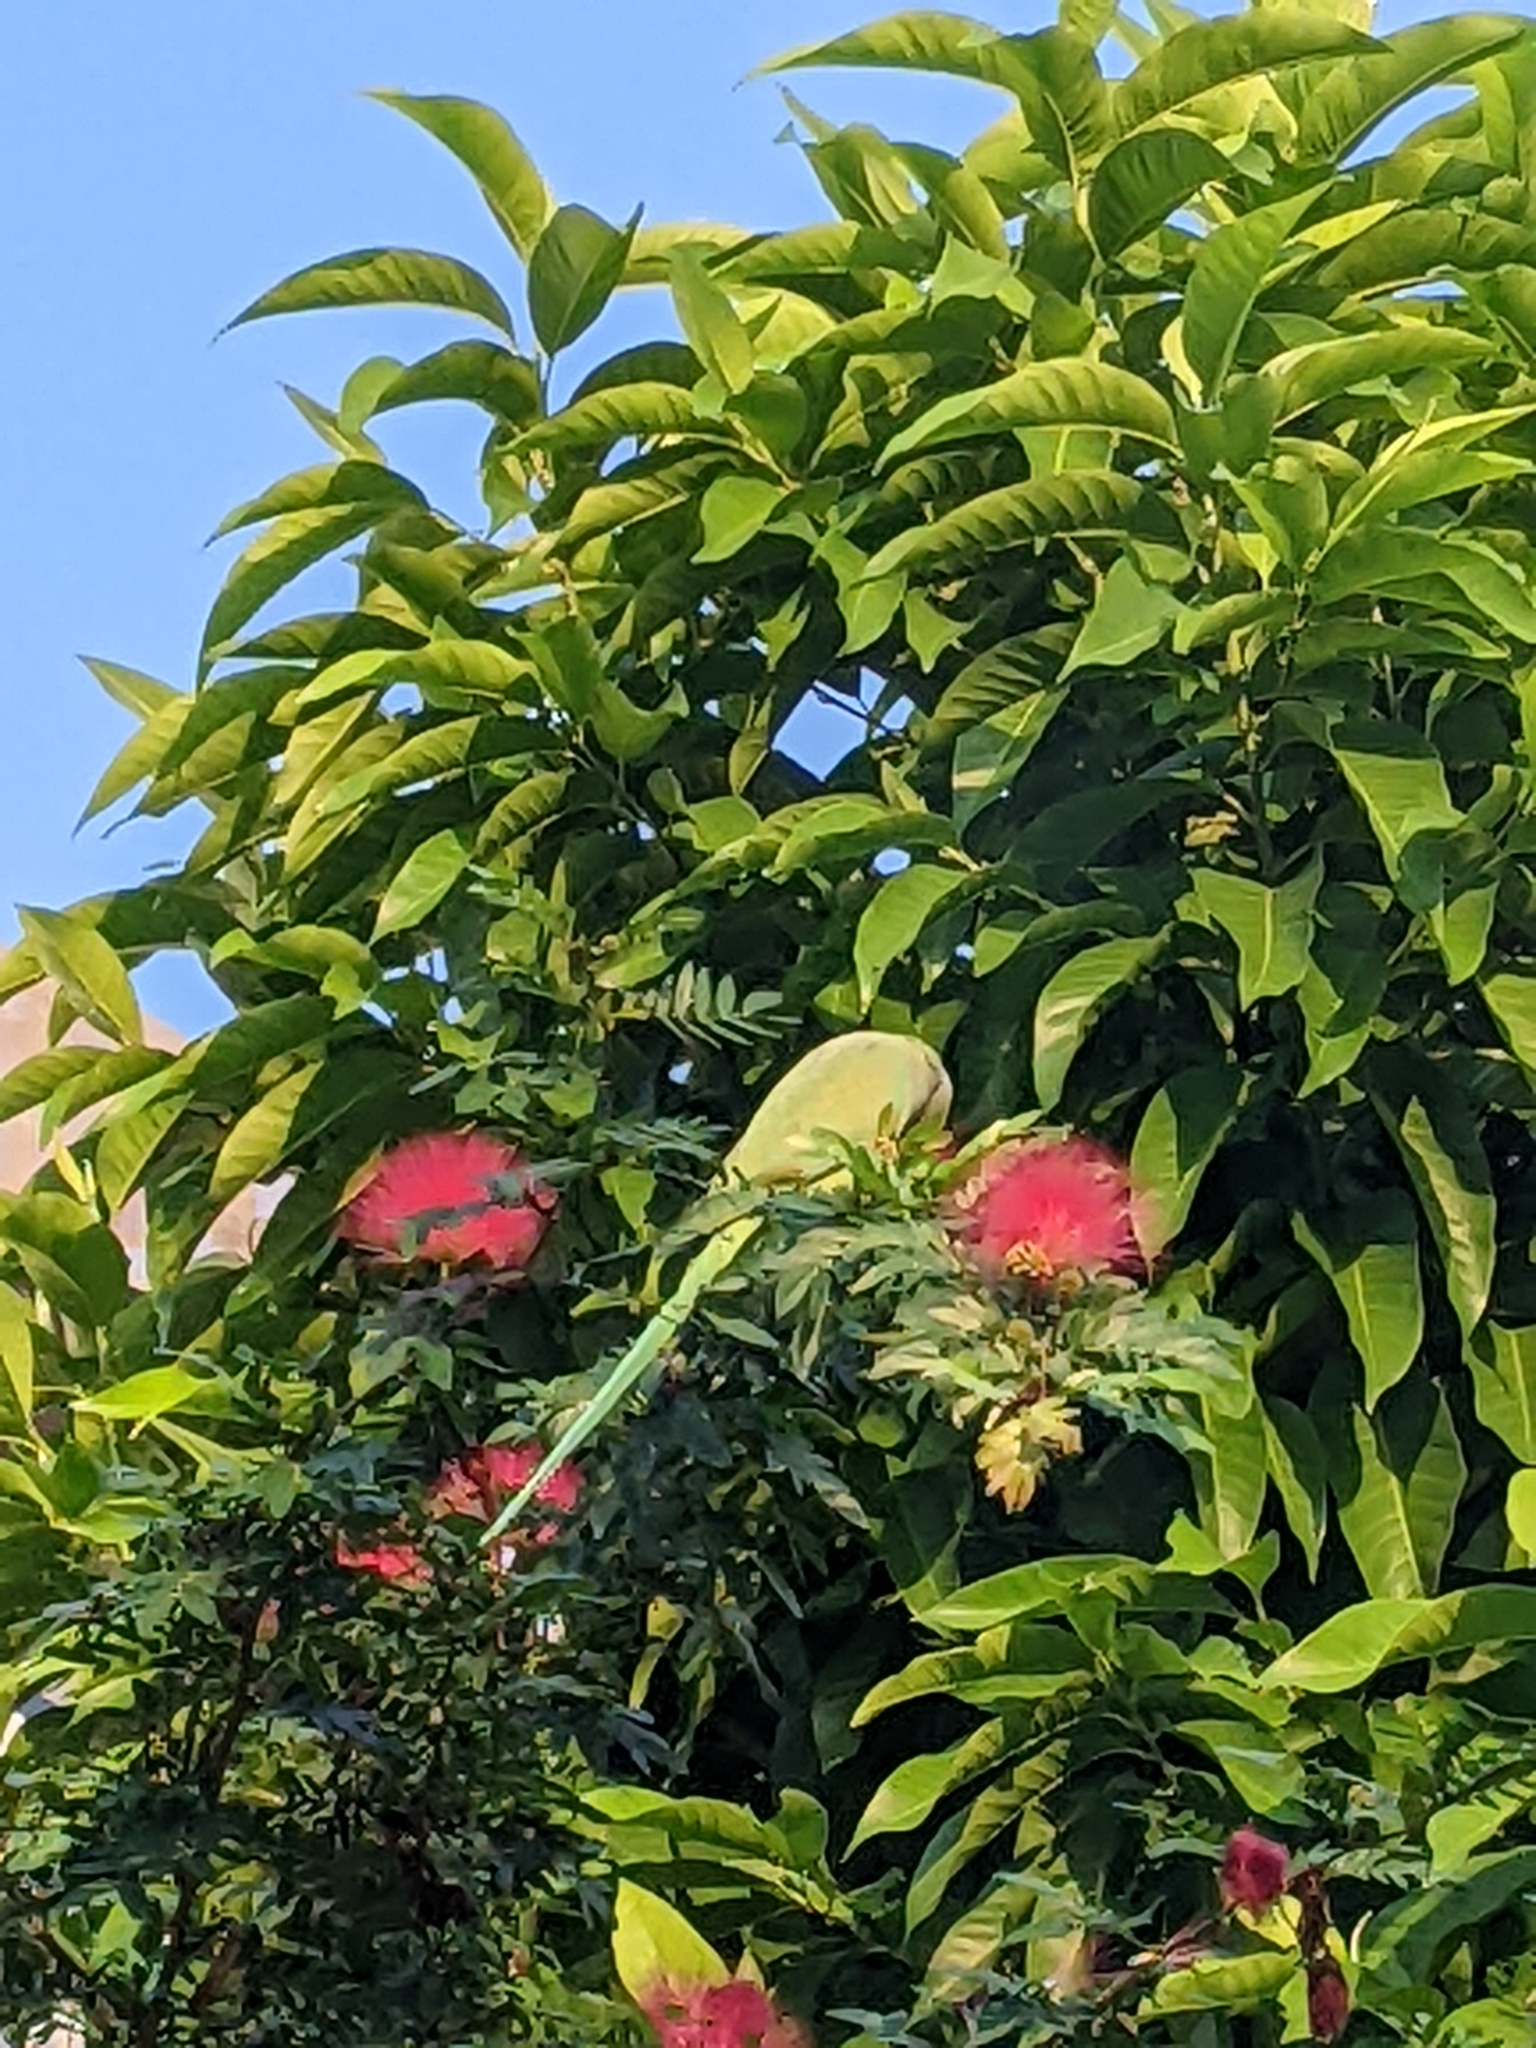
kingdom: Animalia
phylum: Chordata
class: Aves
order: Psittaciformes
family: Psittacidae
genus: Psittacula
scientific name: Psittacula krameri
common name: Rose-ringed parakeet
